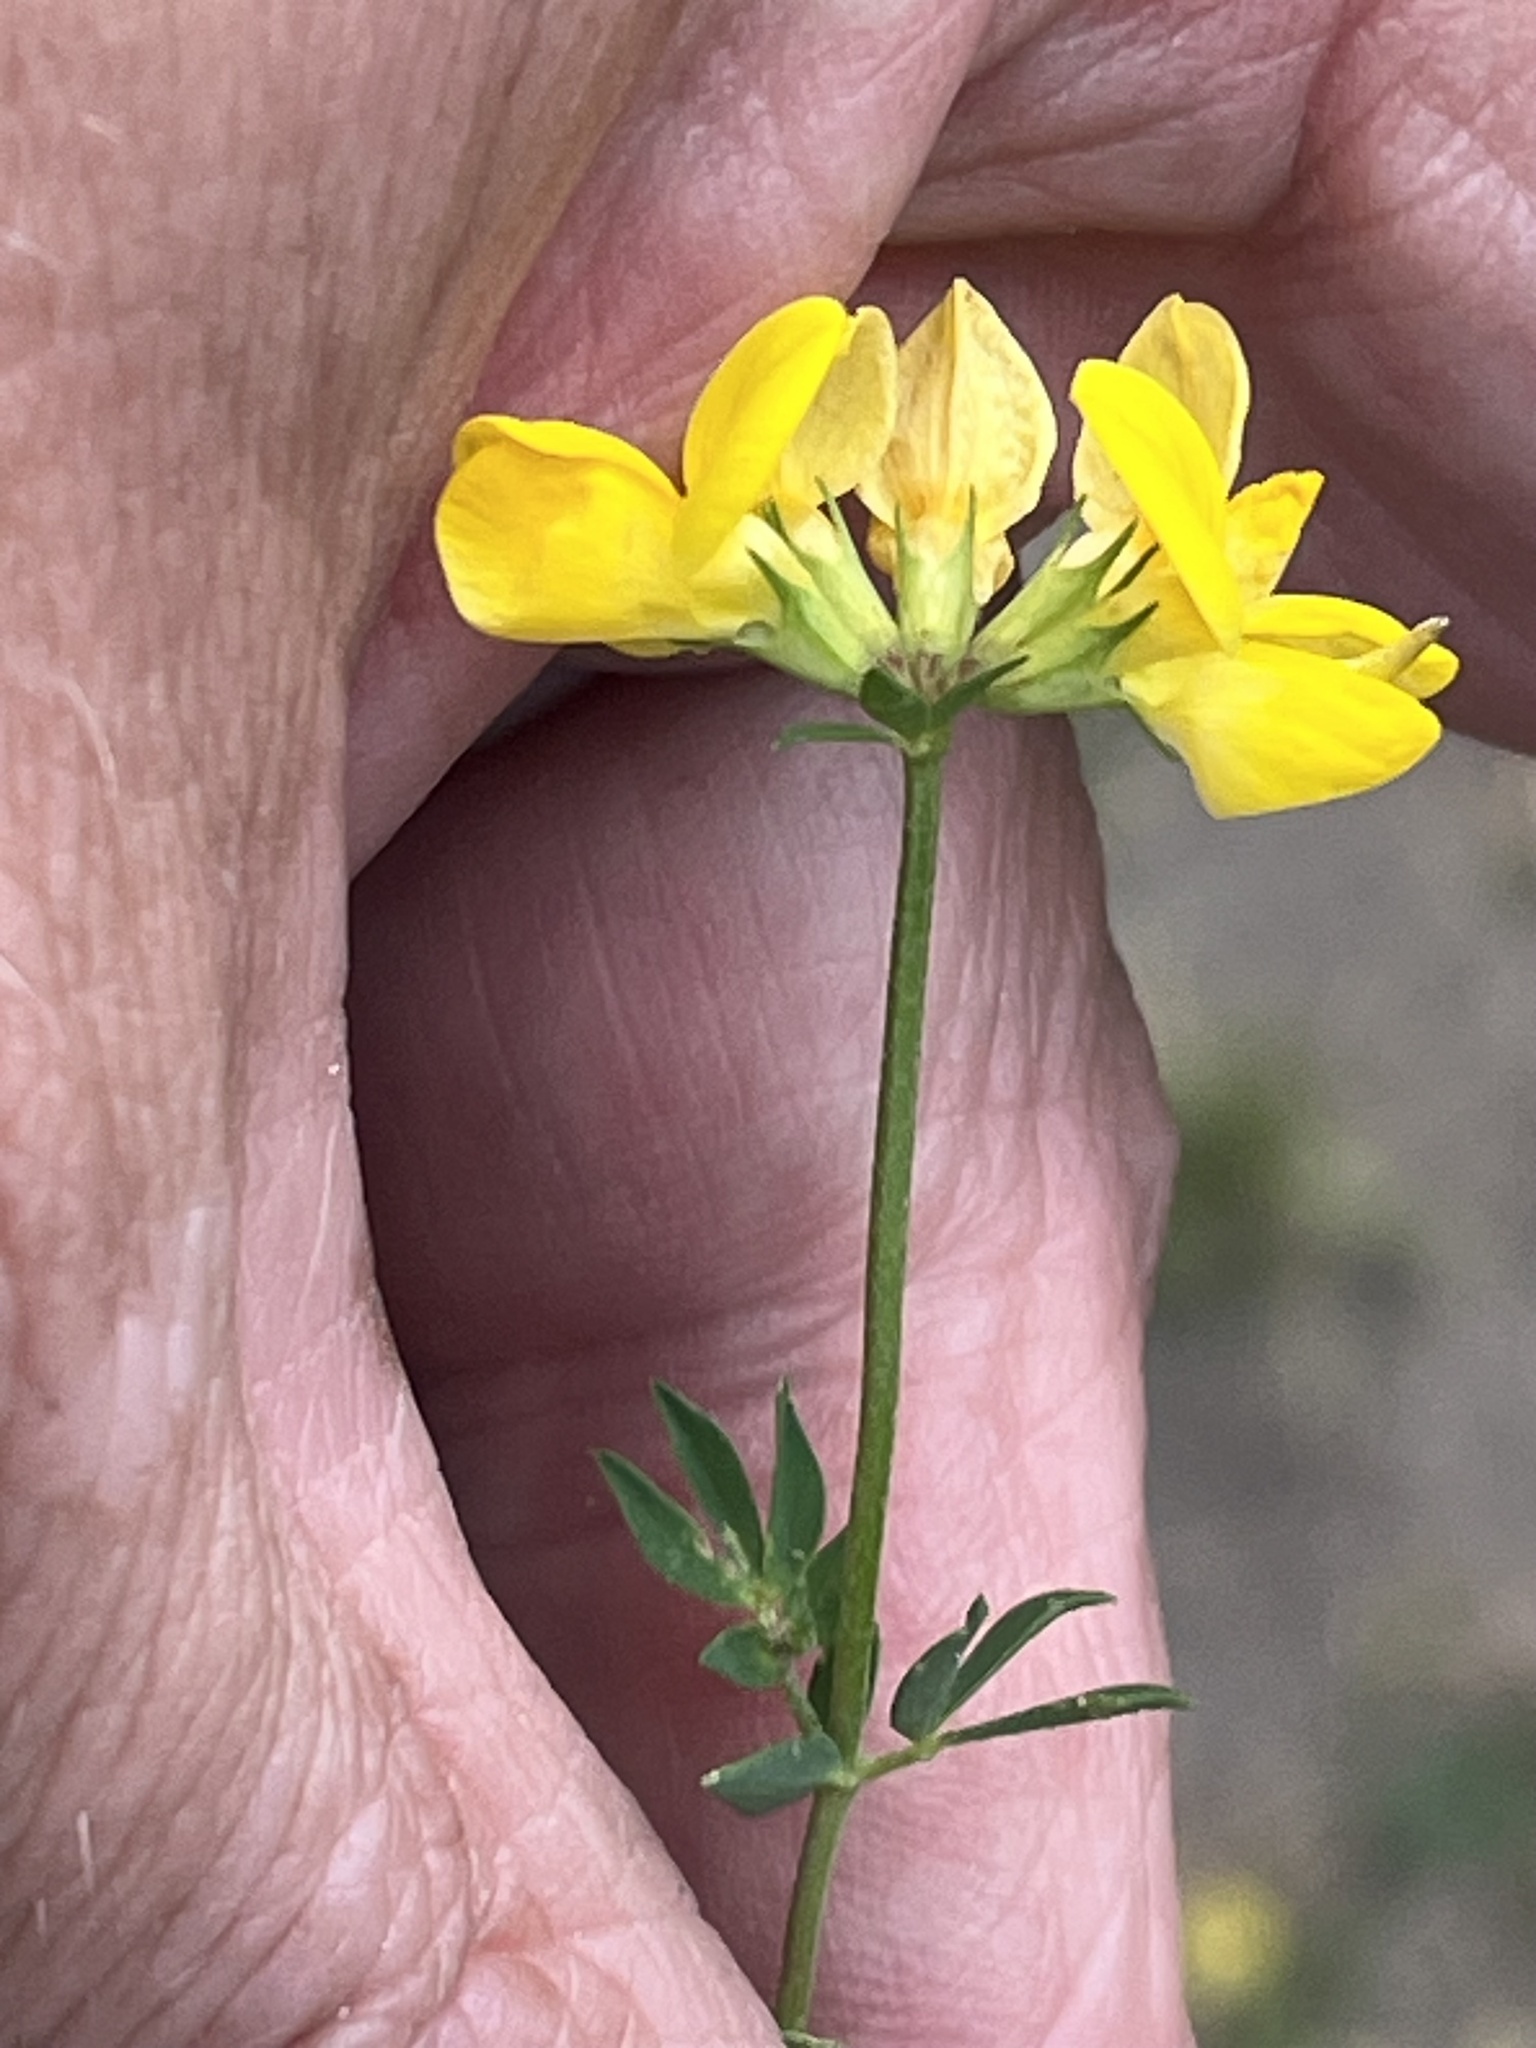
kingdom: Plantae
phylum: Tracheophyta
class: Magnoliopsida
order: Fabales
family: Fabaceae
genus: Lotus
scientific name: Lotus corniculatus
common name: Common bird's-foot-trefoil
